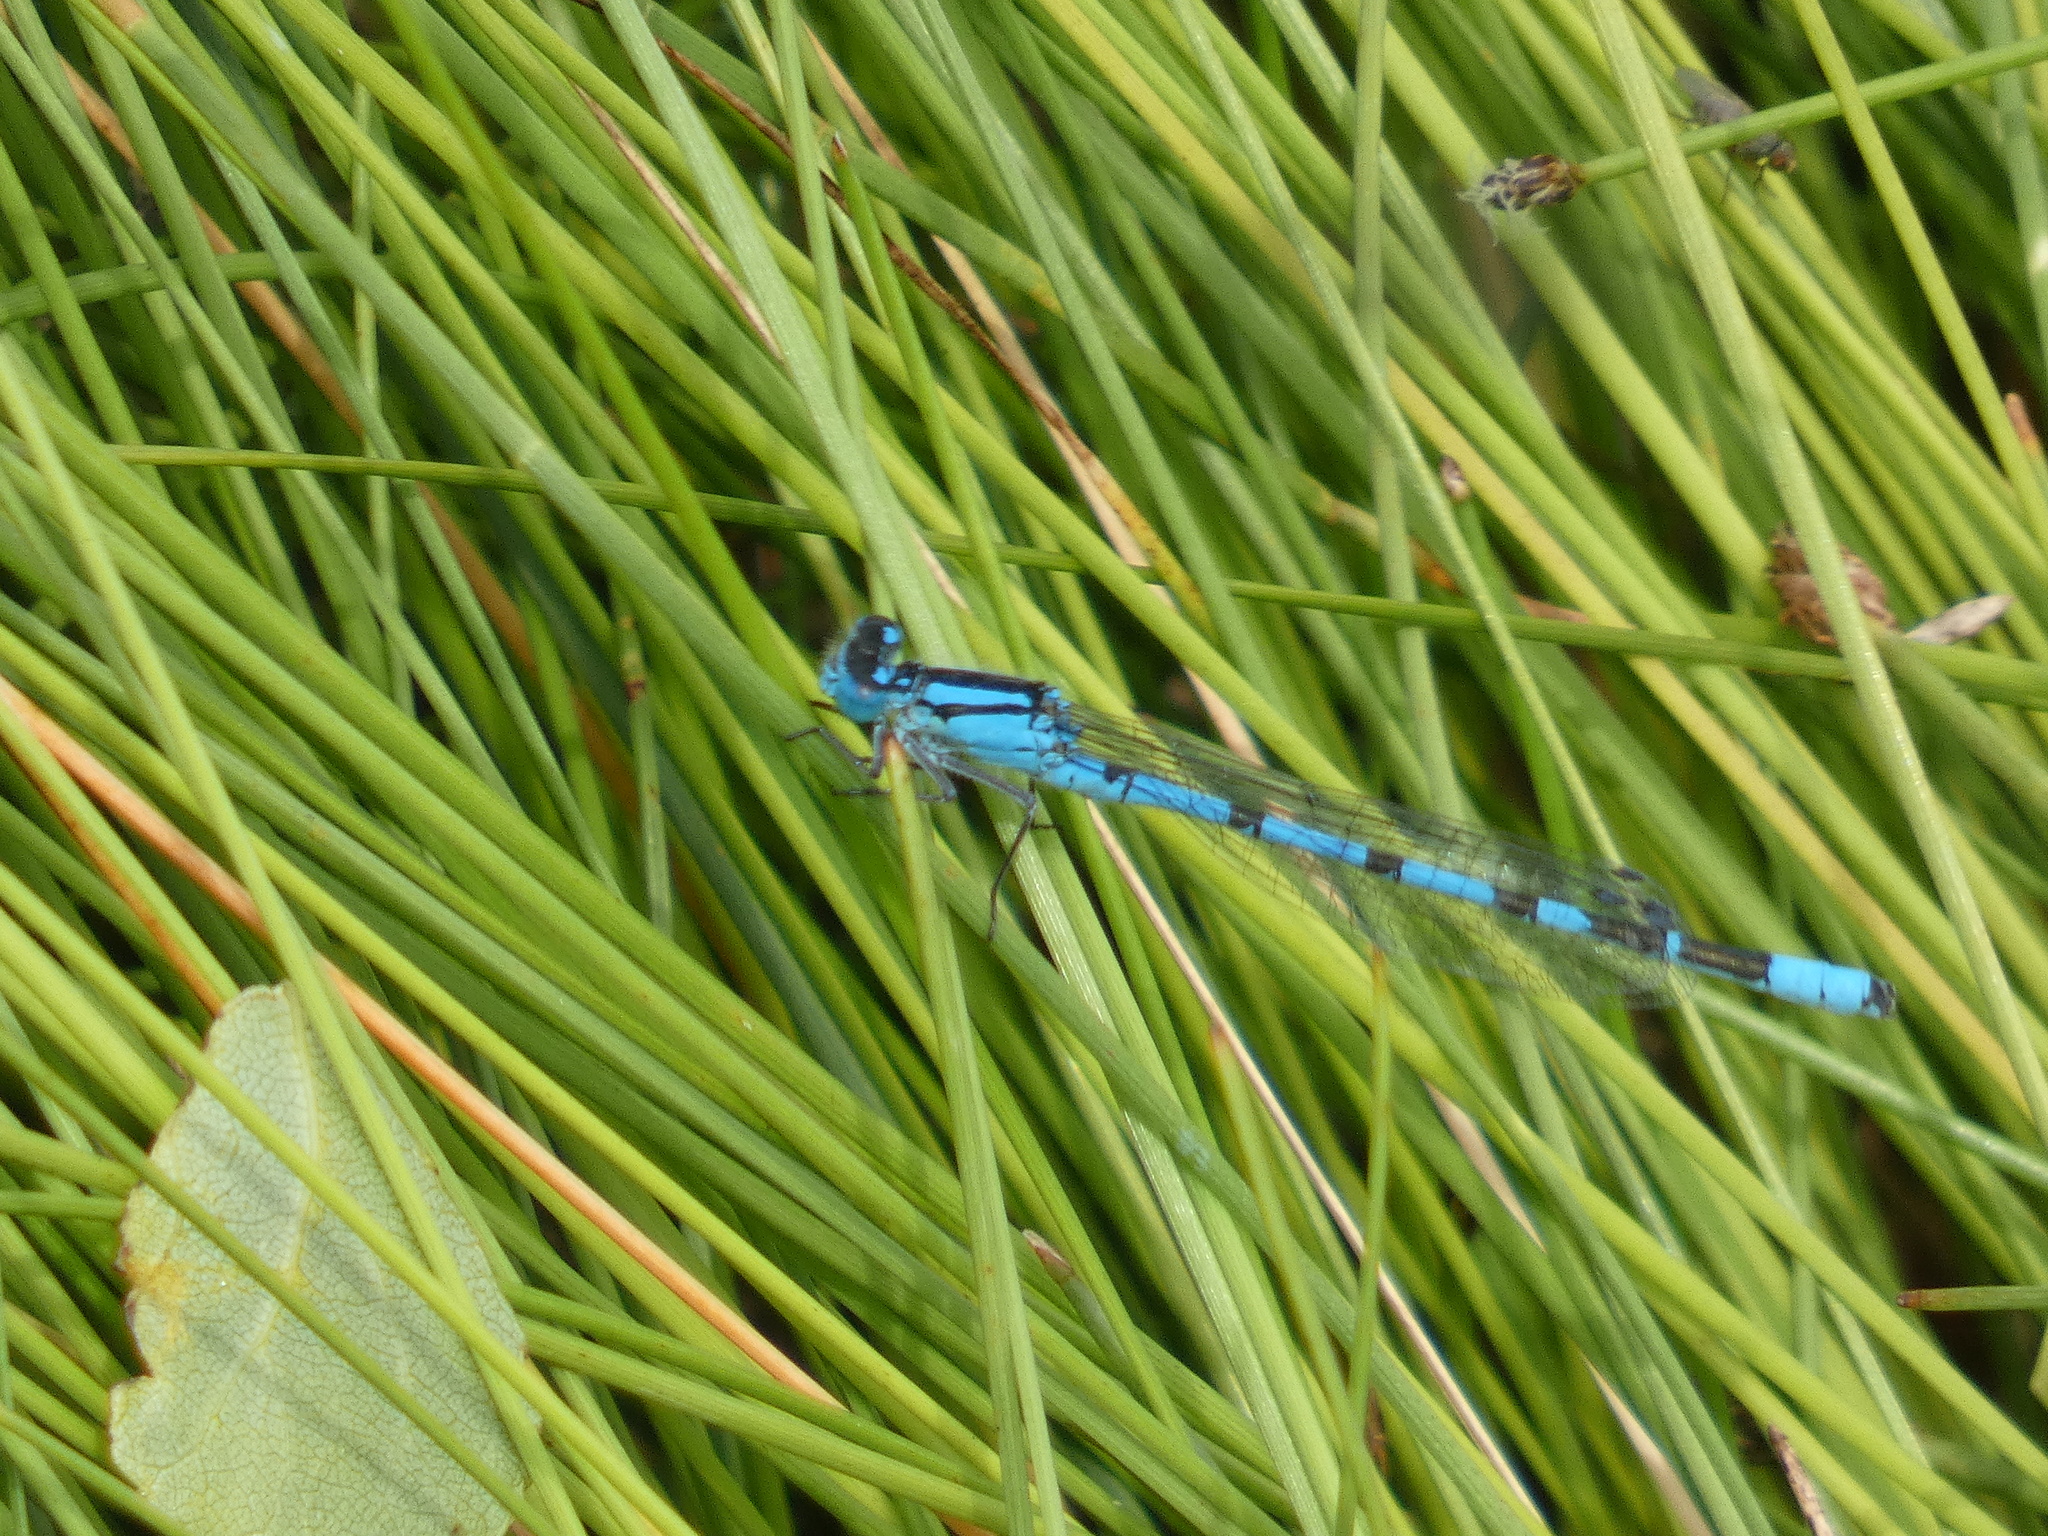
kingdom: Animalia
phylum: Arthropoda
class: Insecta
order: Odonata
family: Coenagrionidae
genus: Enallagma
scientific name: Enallagma cyathigerum
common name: Common blue damselfly
